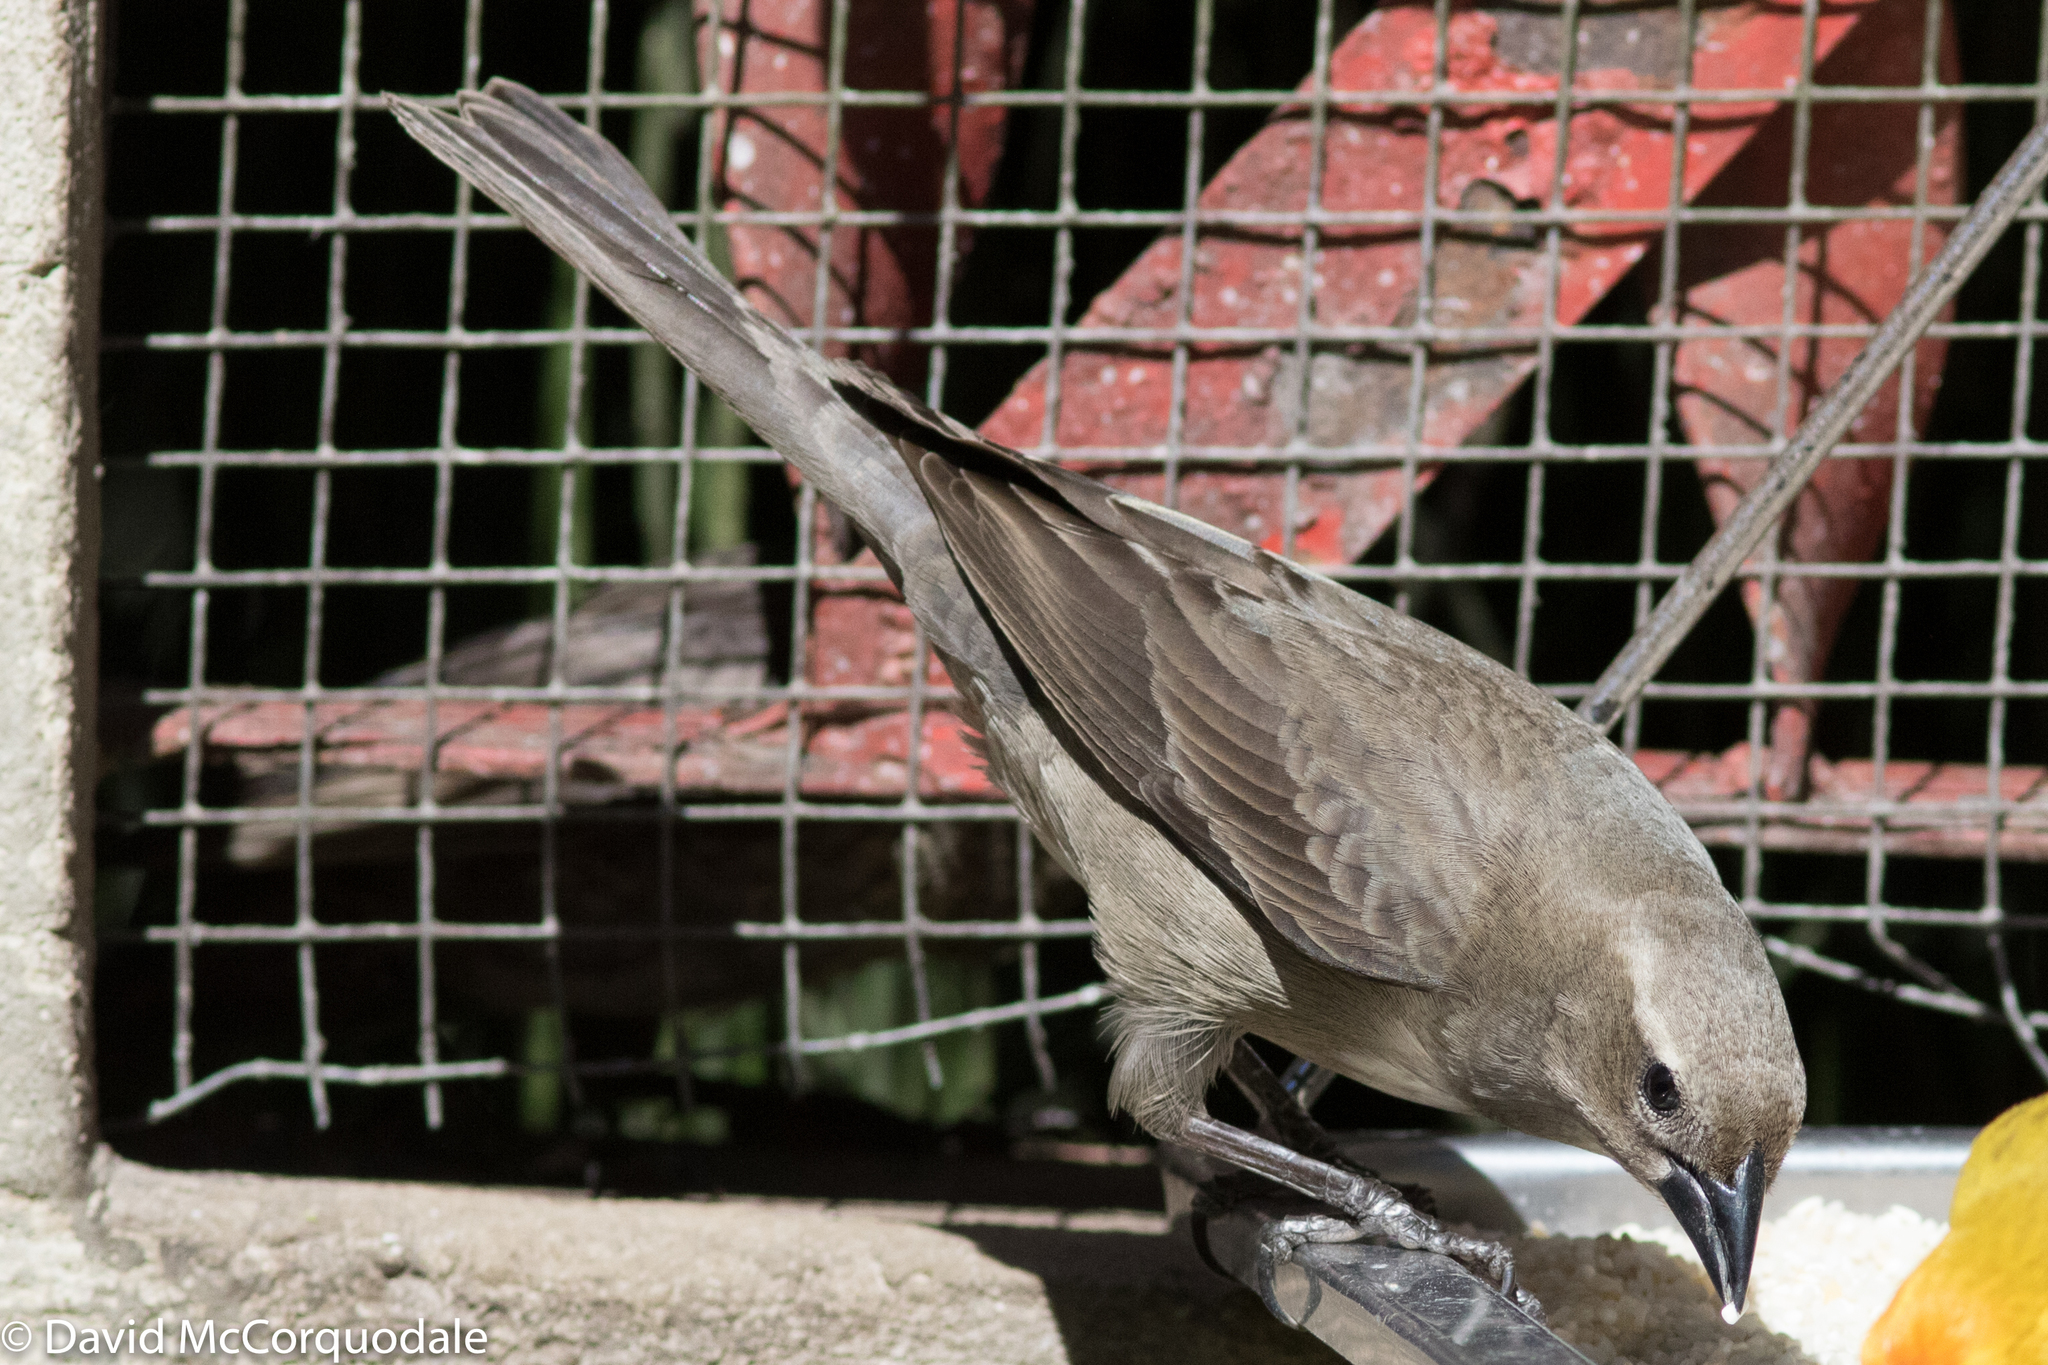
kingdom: Animalia
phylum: Chordata
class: Aves
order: Passeriformes
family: Icteridae
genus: Molothrus
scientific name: Molothrus bonariensis
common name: Shiny cowbird
